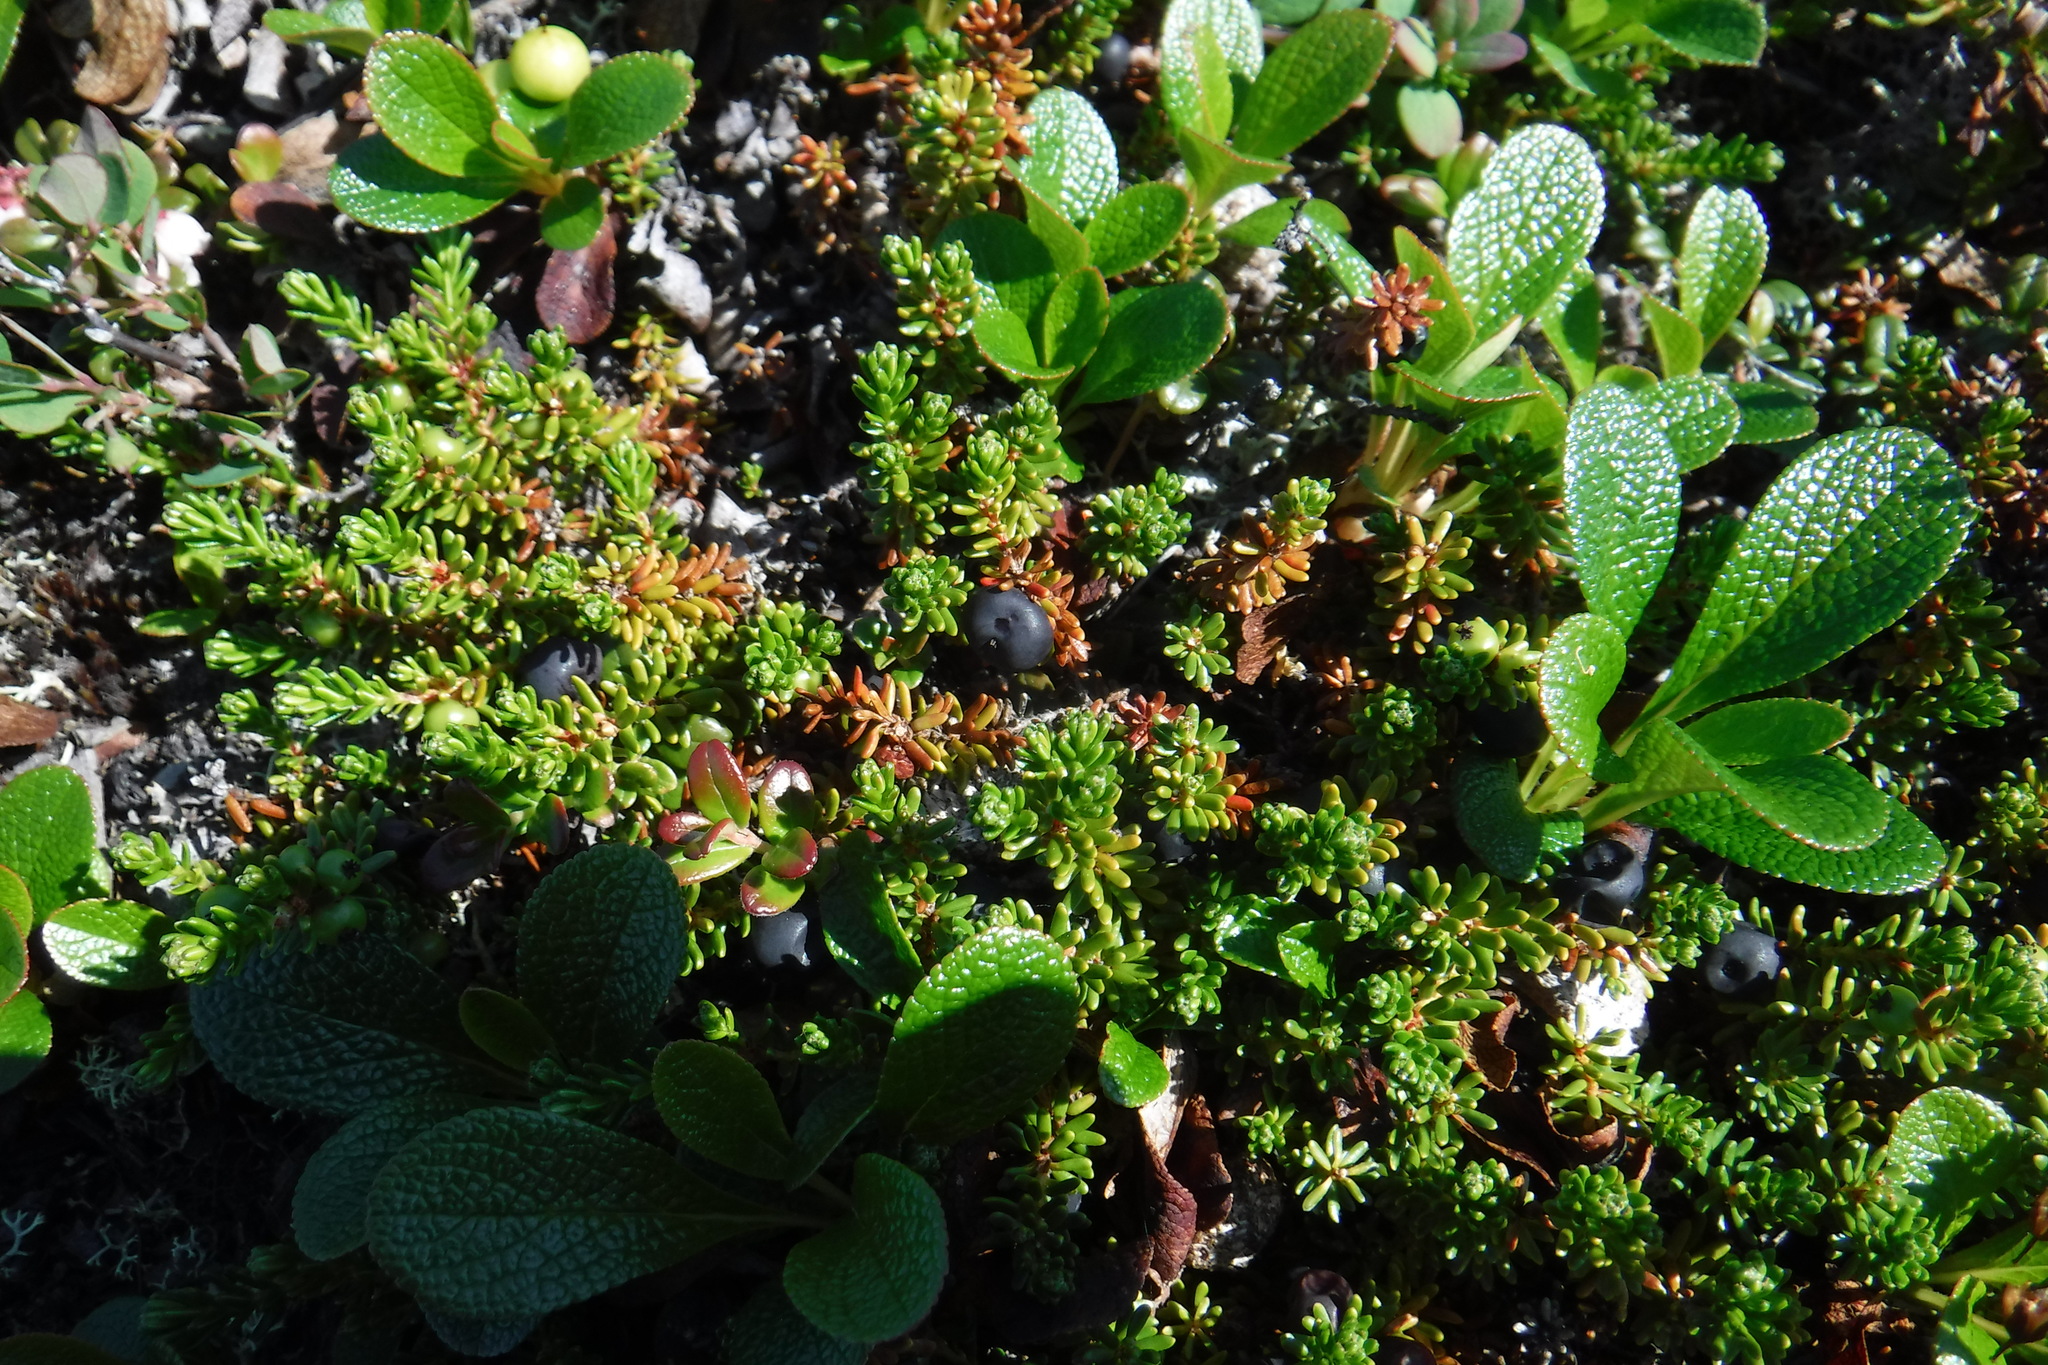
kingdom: Plantae
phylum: Tracheophyta
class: Magnoliopsida
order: Ericales
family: Ericaceae
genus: Empetrum
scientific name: Empetrum nigrum
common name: Black crowberry
